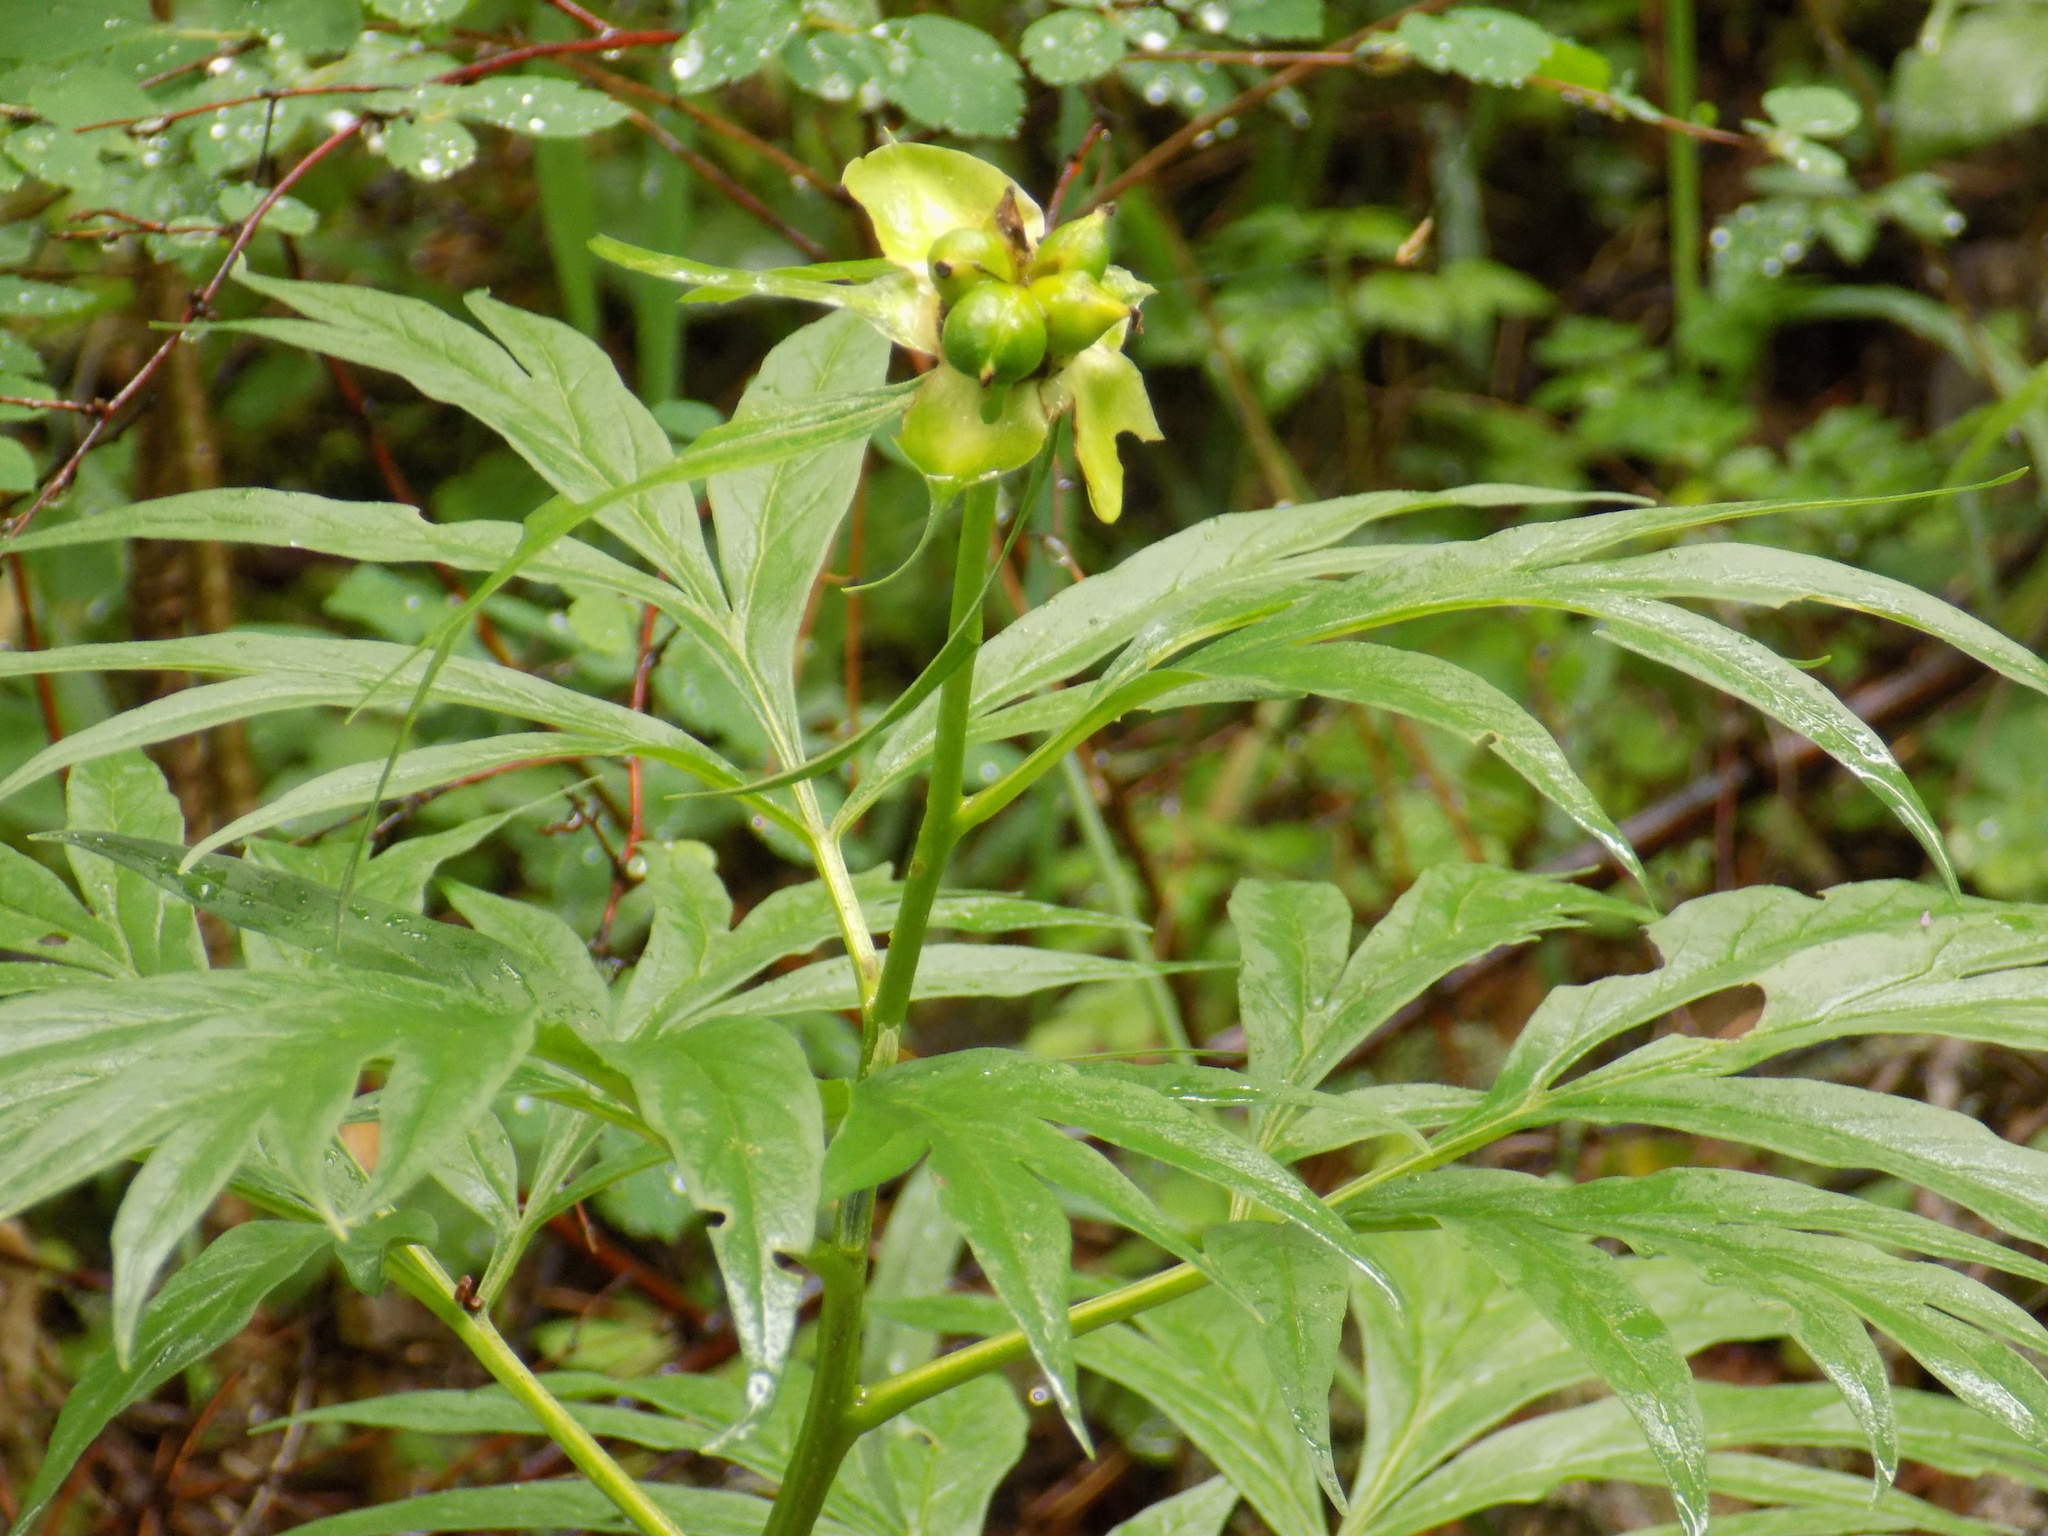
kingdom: Plantae
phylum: Tracheophyta
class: Magnoliopsida
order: Saxifragales
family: Paeoniaceae
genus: Paeonia
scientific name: Paeonia anomala
